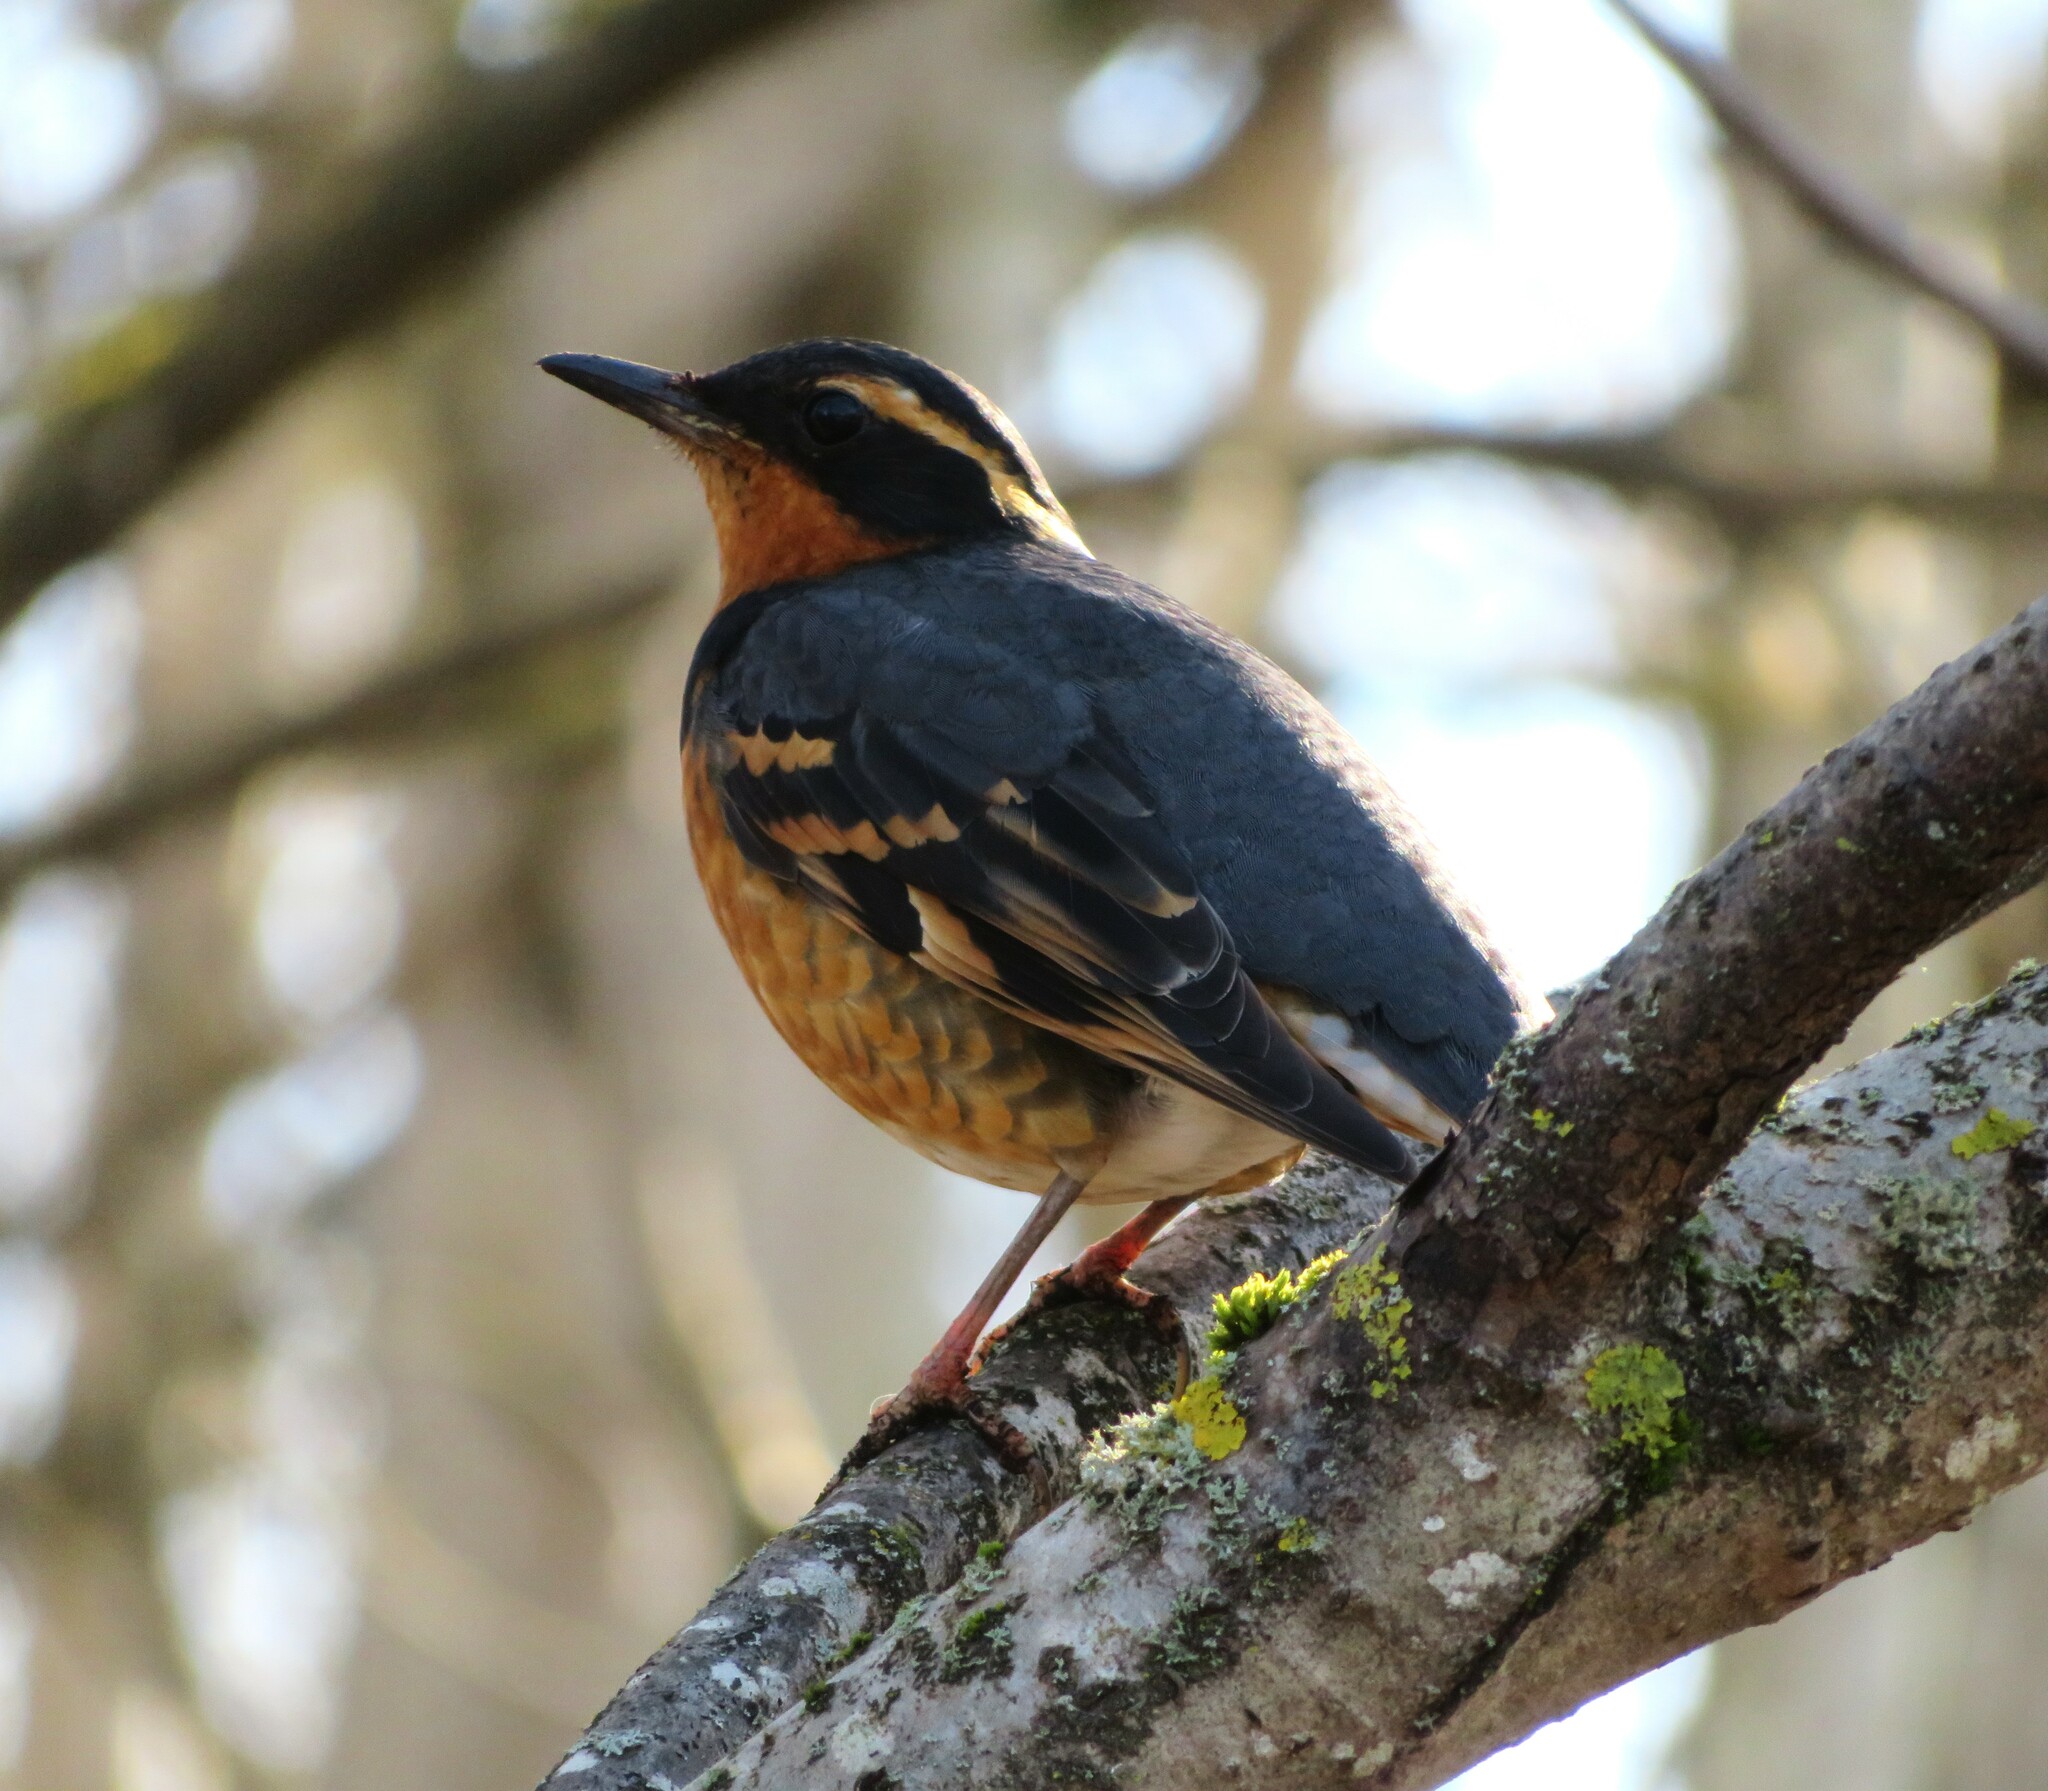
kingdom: Animalia
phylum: Chordata
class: Aves
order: Passeriformes
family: Turdidae
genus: Ixoreus
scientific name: Ixoreus naevius
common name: Varied thrush
